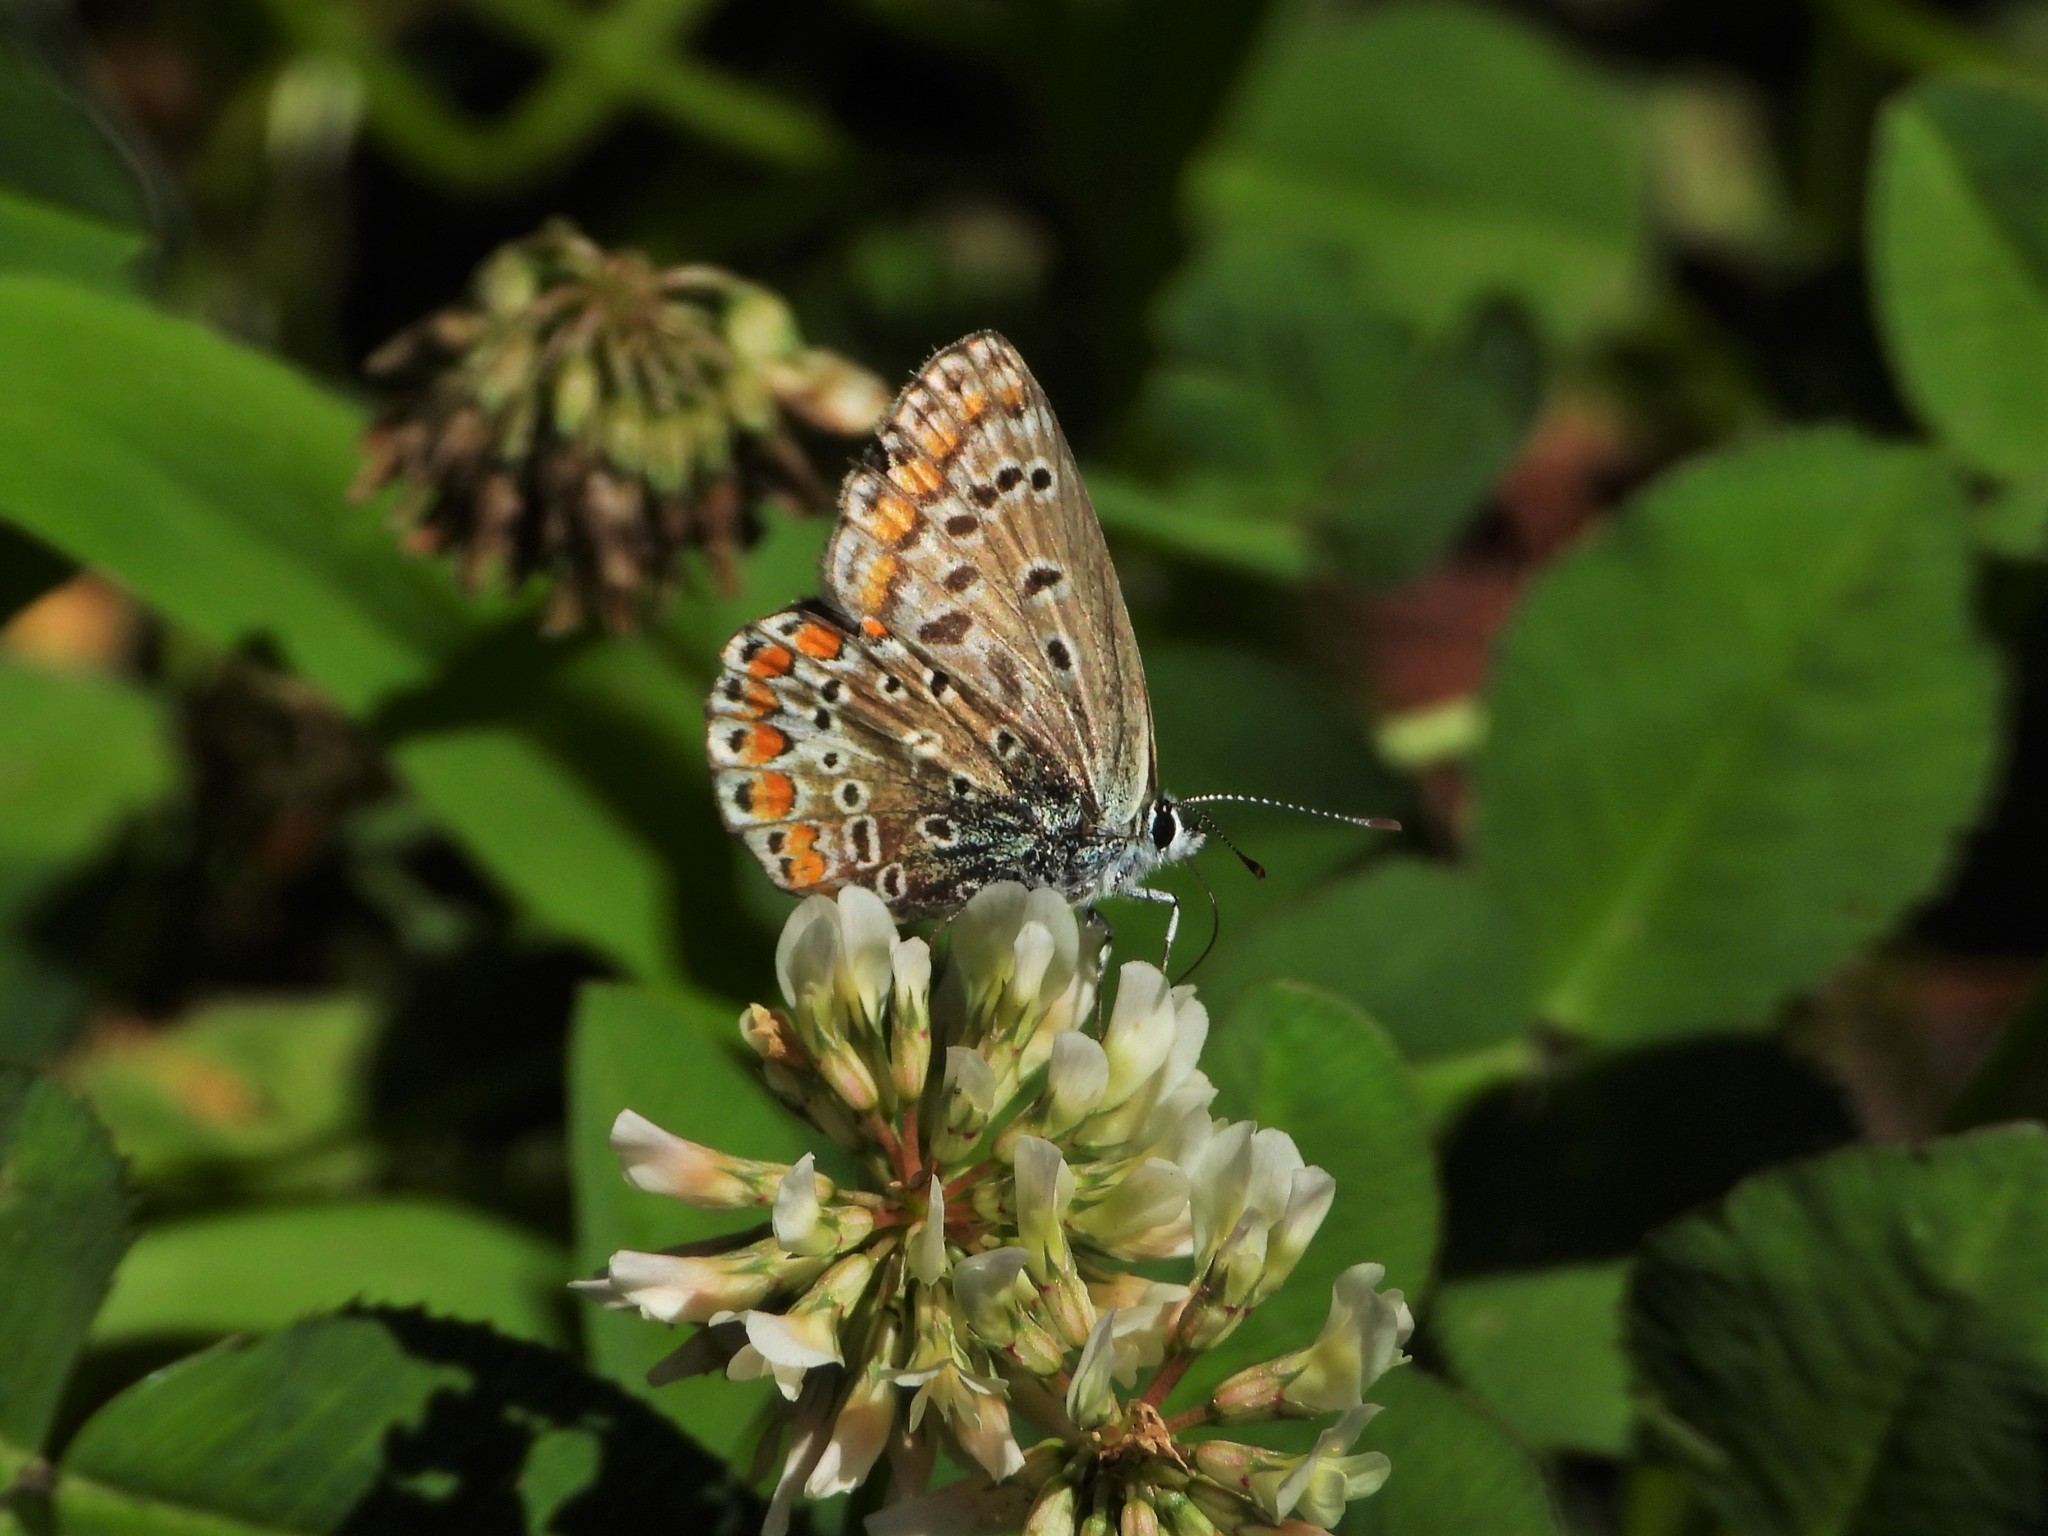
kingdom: Animalia
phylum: Arthropoda
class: Insecta
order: Lepidoptera
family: Lycaenidae
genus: Polyommatus
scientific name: Polyommatus icarus
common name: Common blue
